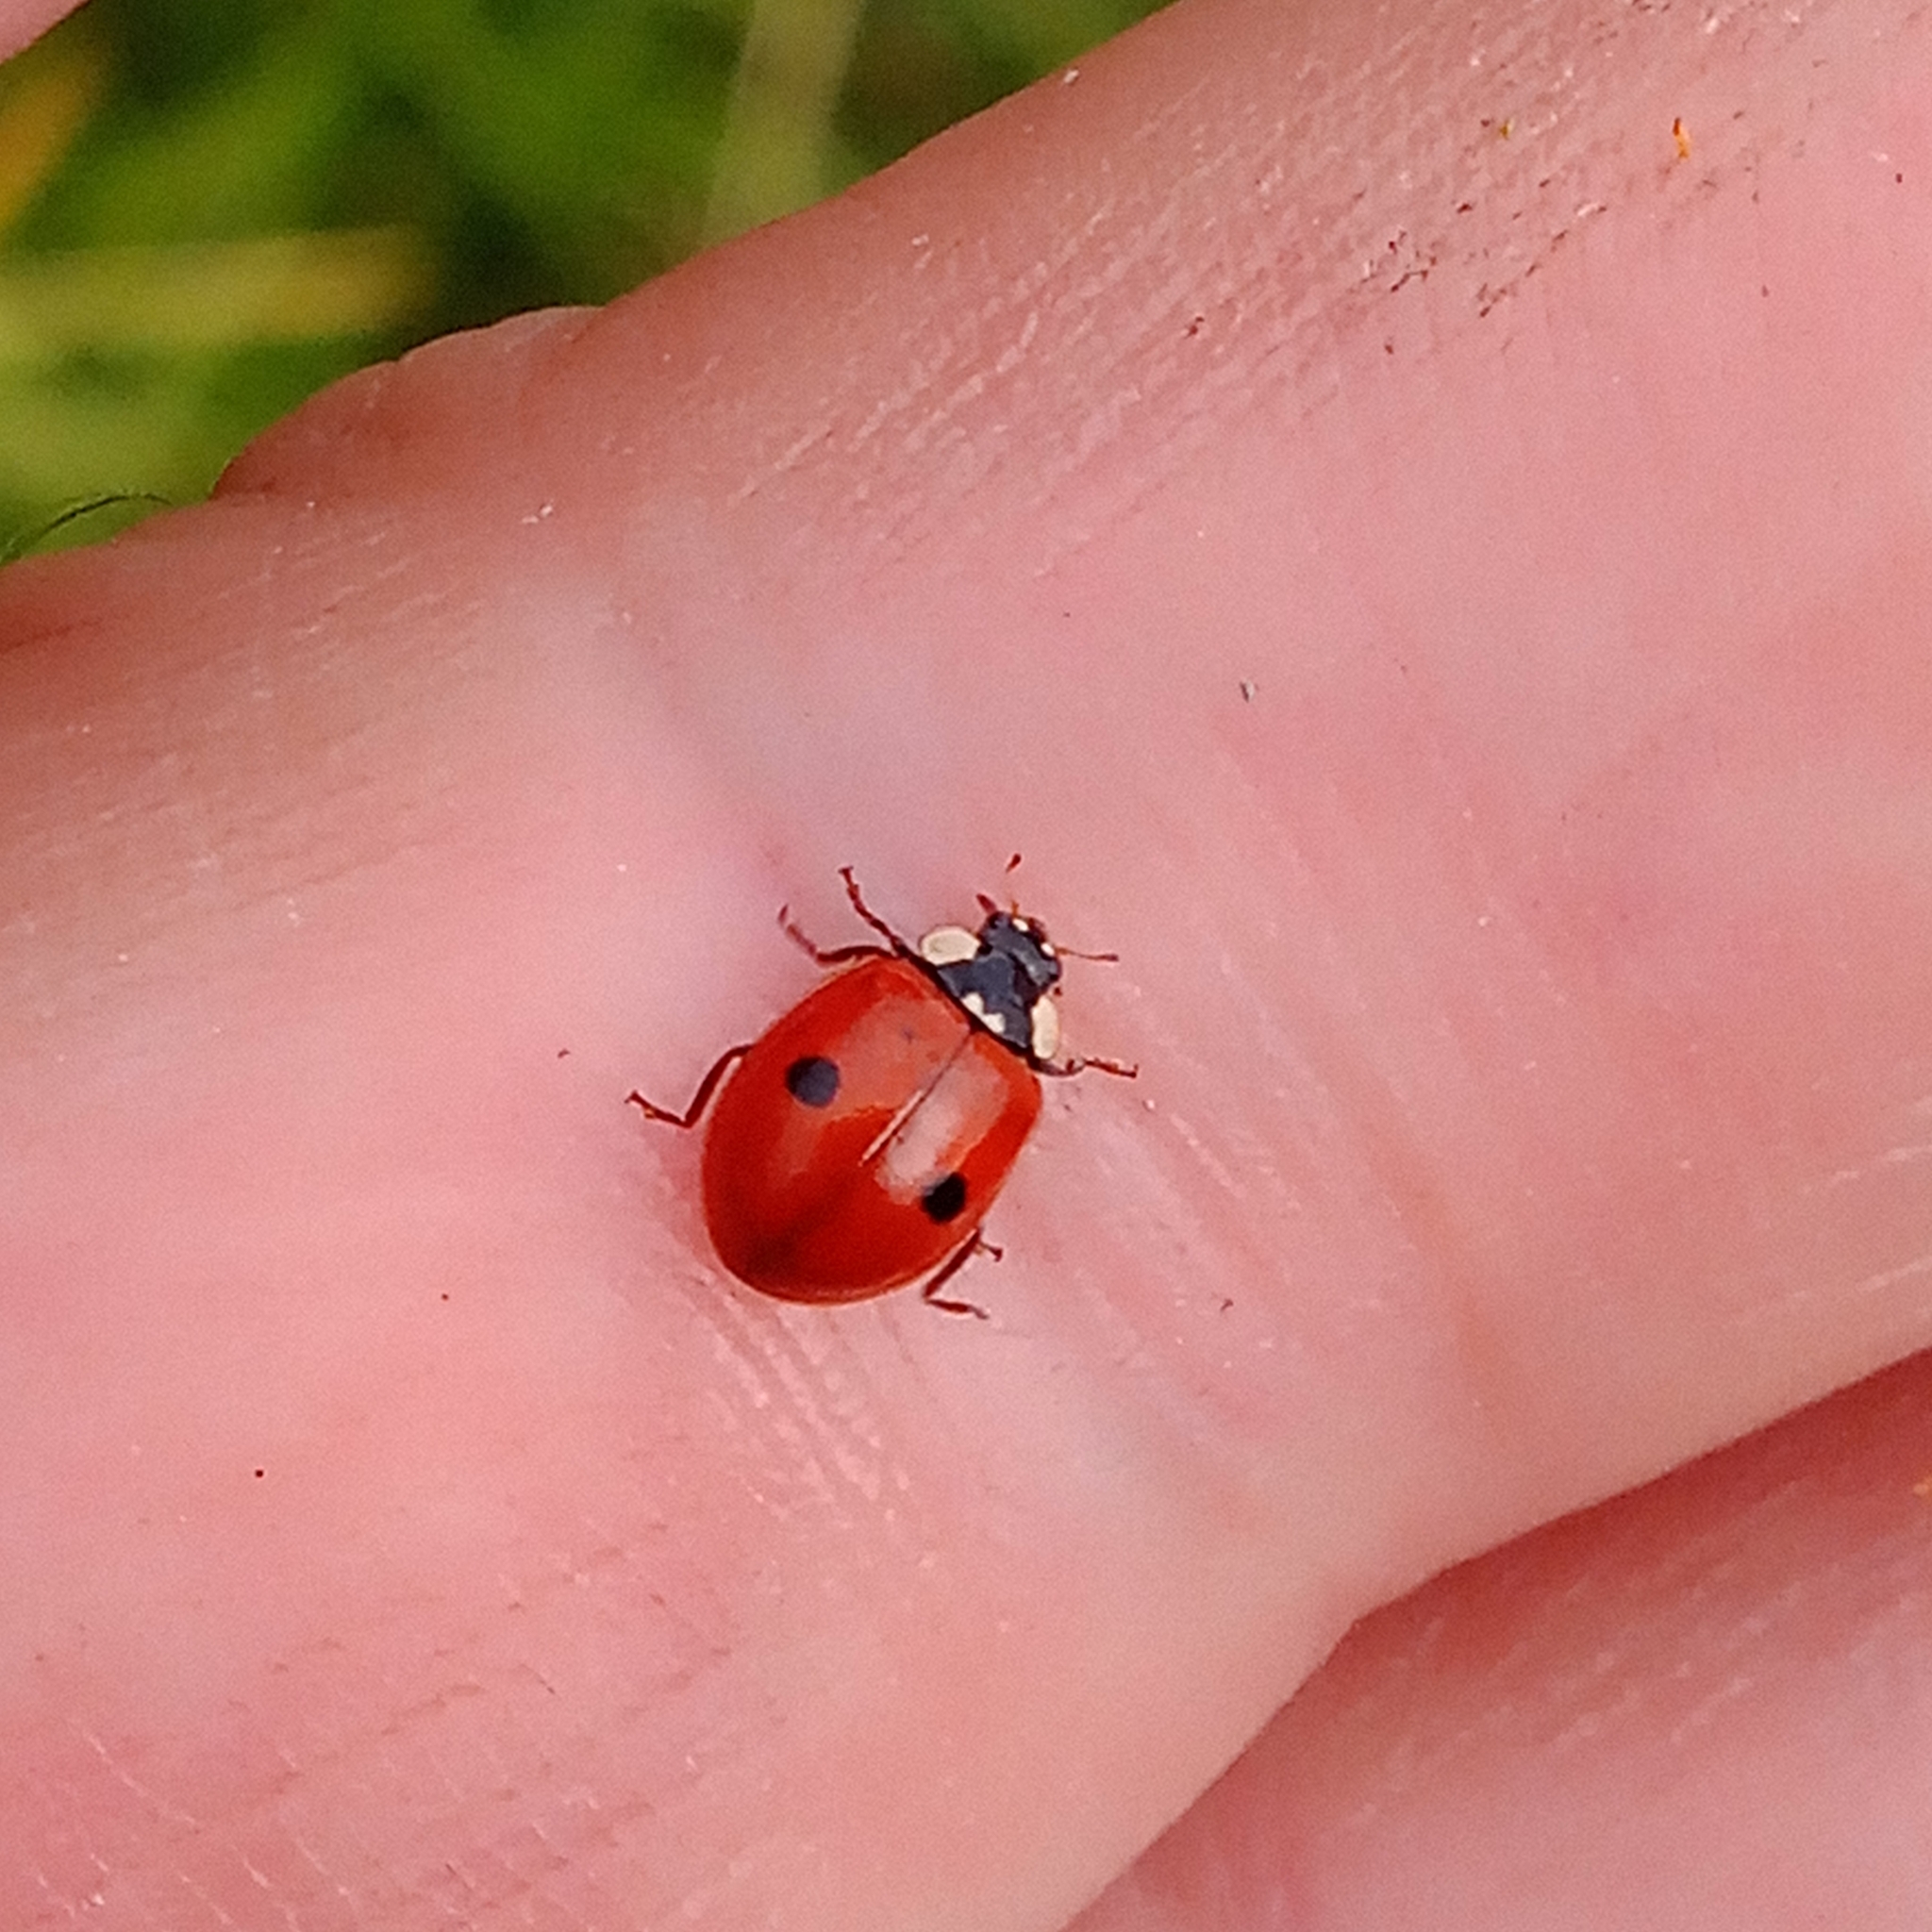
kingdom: Animalia
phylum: Arthropoda
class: Insecta
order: Coleoptera
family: Coccinellidae
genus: Adalia
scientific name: Adalia bipunctata
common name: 2-spot ladybird
